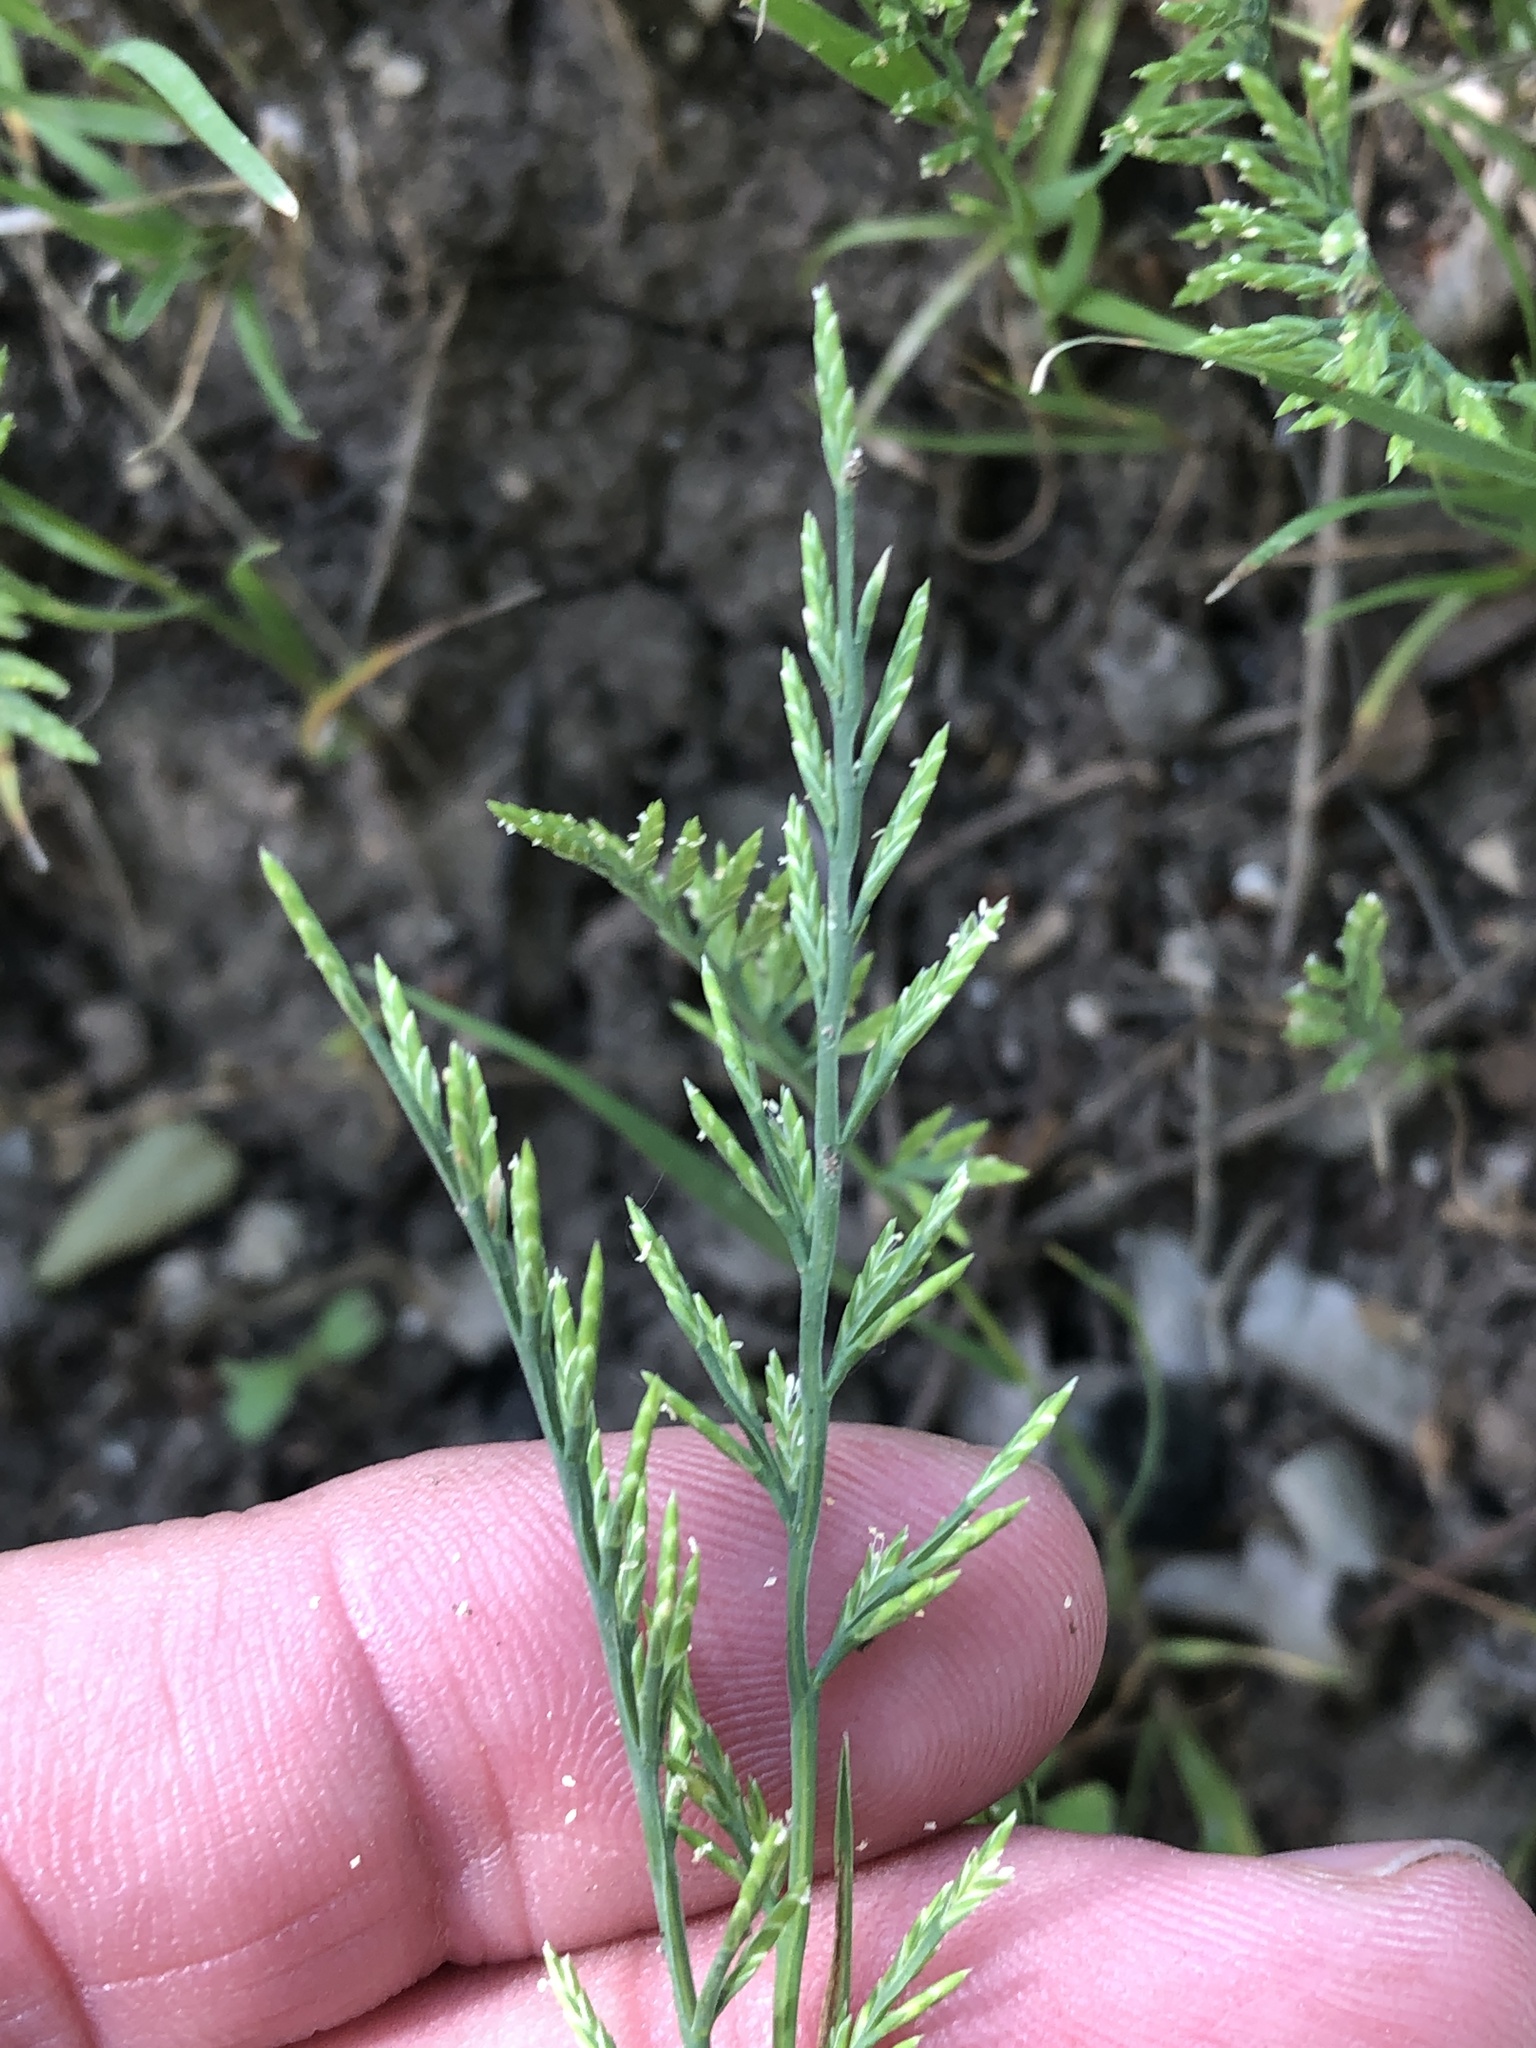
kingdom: Plantae
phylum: Tracheophyta
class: Liliopsida
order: Poales
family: Poaceae
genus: Catapodium
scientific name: Catapodium rigidum
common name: Fern-grass
